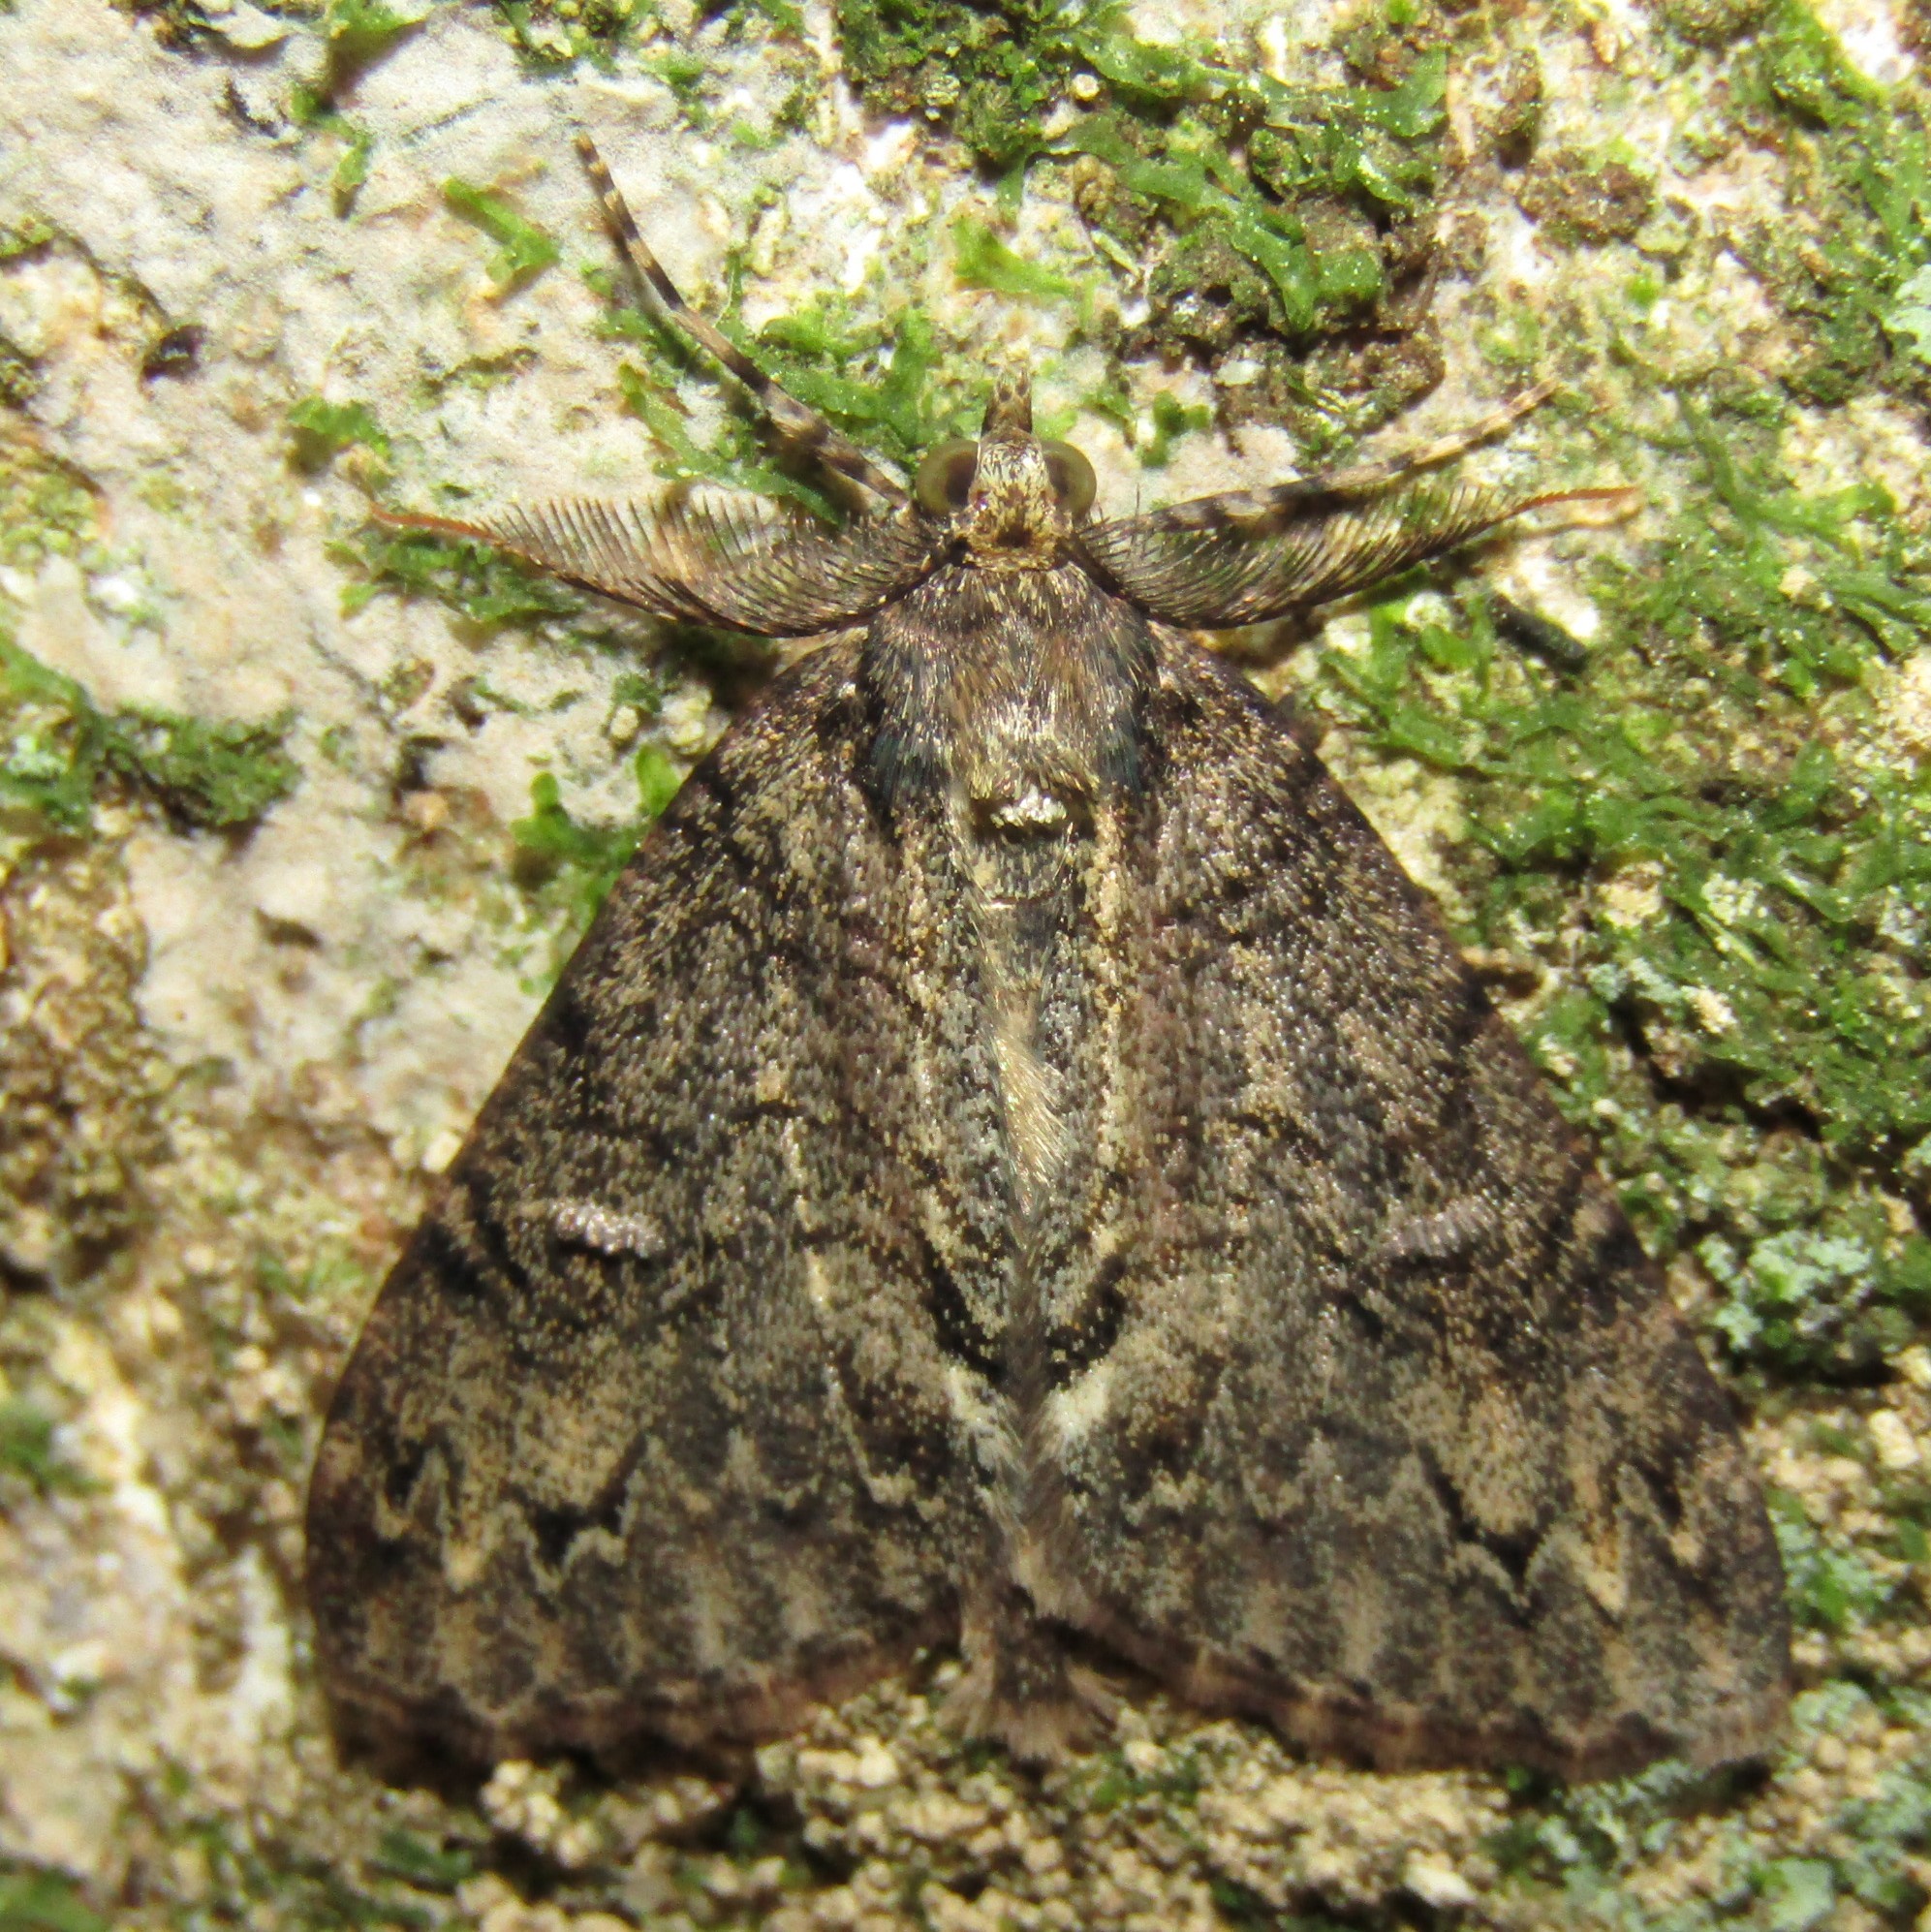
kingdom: Animalia
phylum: Arthropoda
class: Insecta
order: Lepidoptera
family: Geometridae
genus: Pseudocoremia
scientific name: Pseudocoremia suavis
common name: Common forest looper
